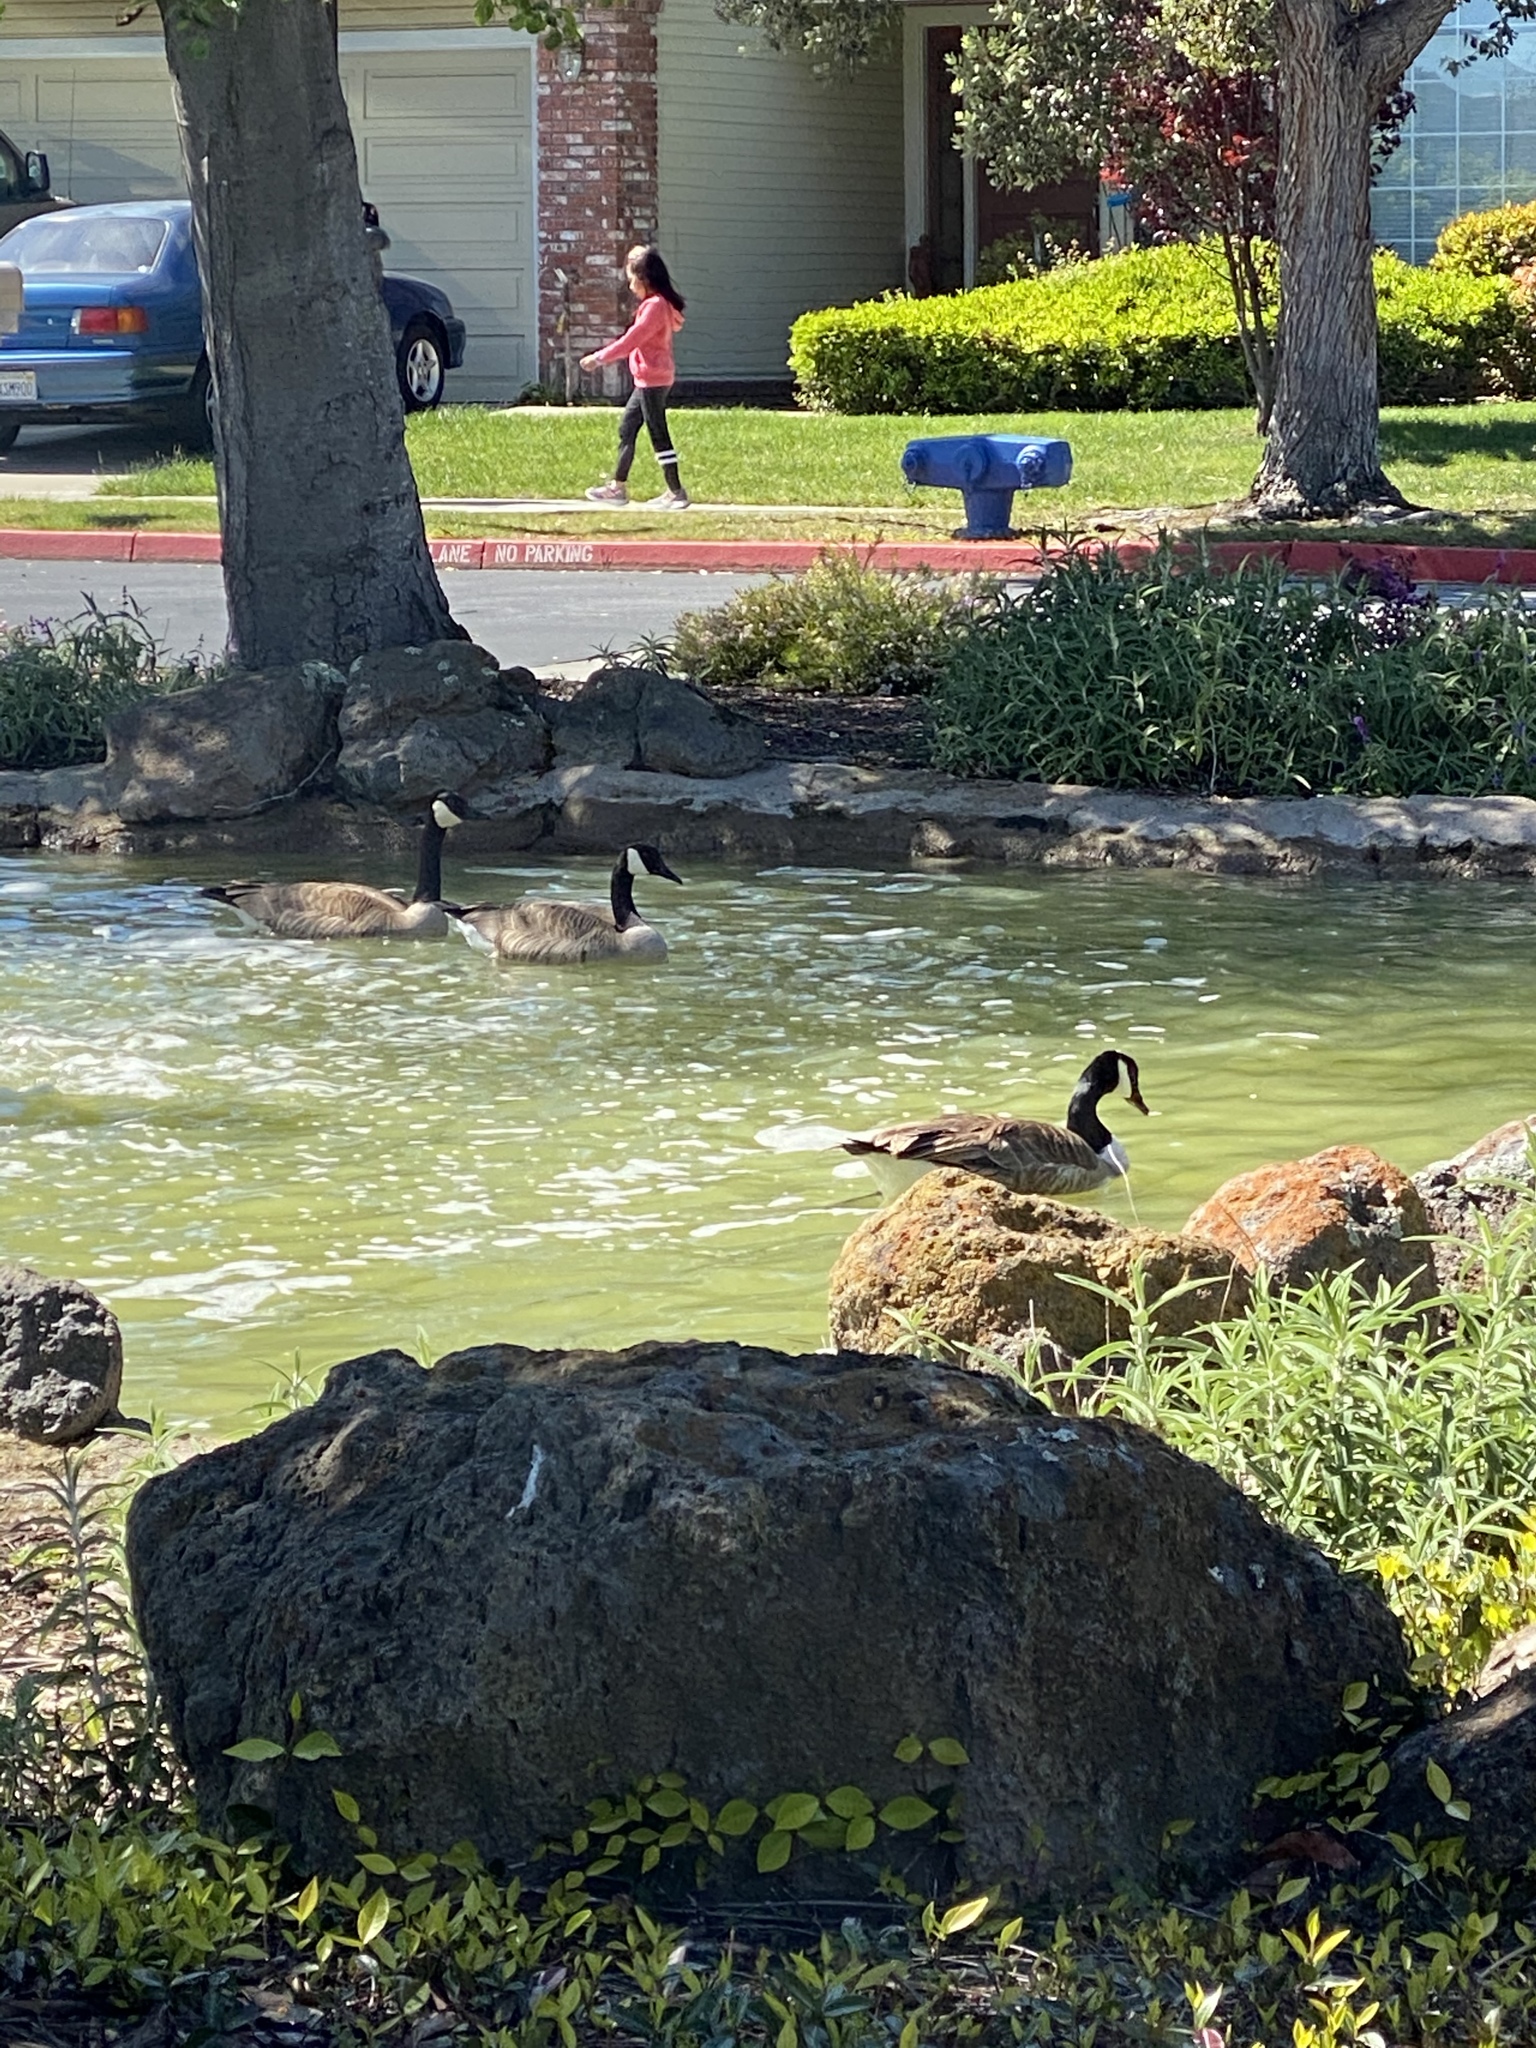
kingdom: Animalia
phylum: Chordata
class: Aves
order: Anseriformes
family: Anatidae
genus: Branta
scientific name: Branta canadensis
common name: Canada goose
